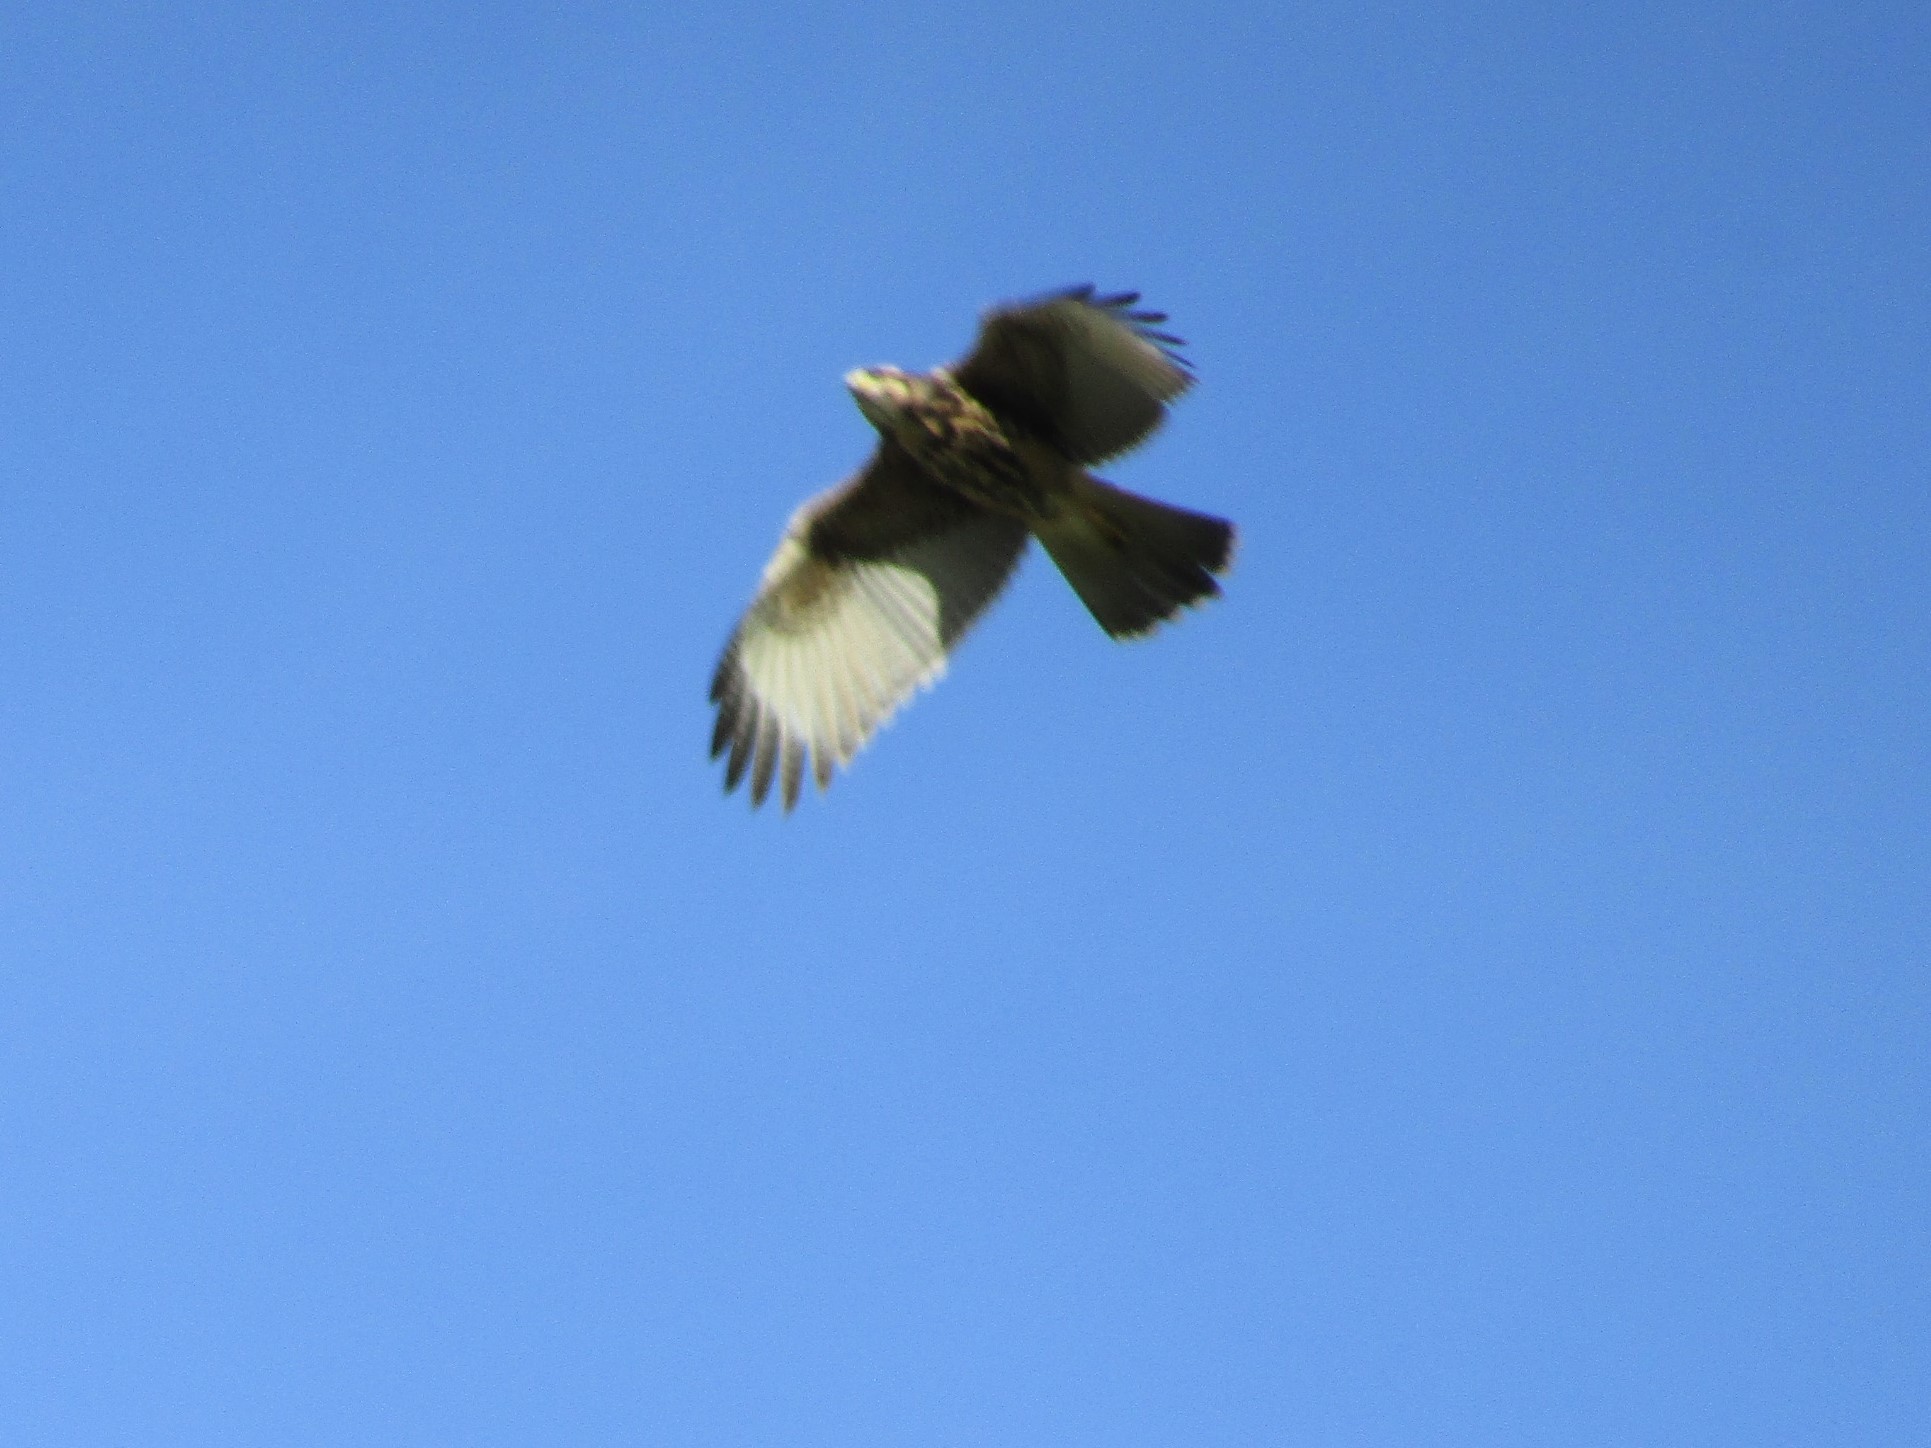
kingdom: Animalia
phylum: Chordata
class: Aves
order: Accipitriformes
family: Accipitridae
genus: Parabuteo
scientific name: Parabuteo unicinctus
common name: Harris's hawk
